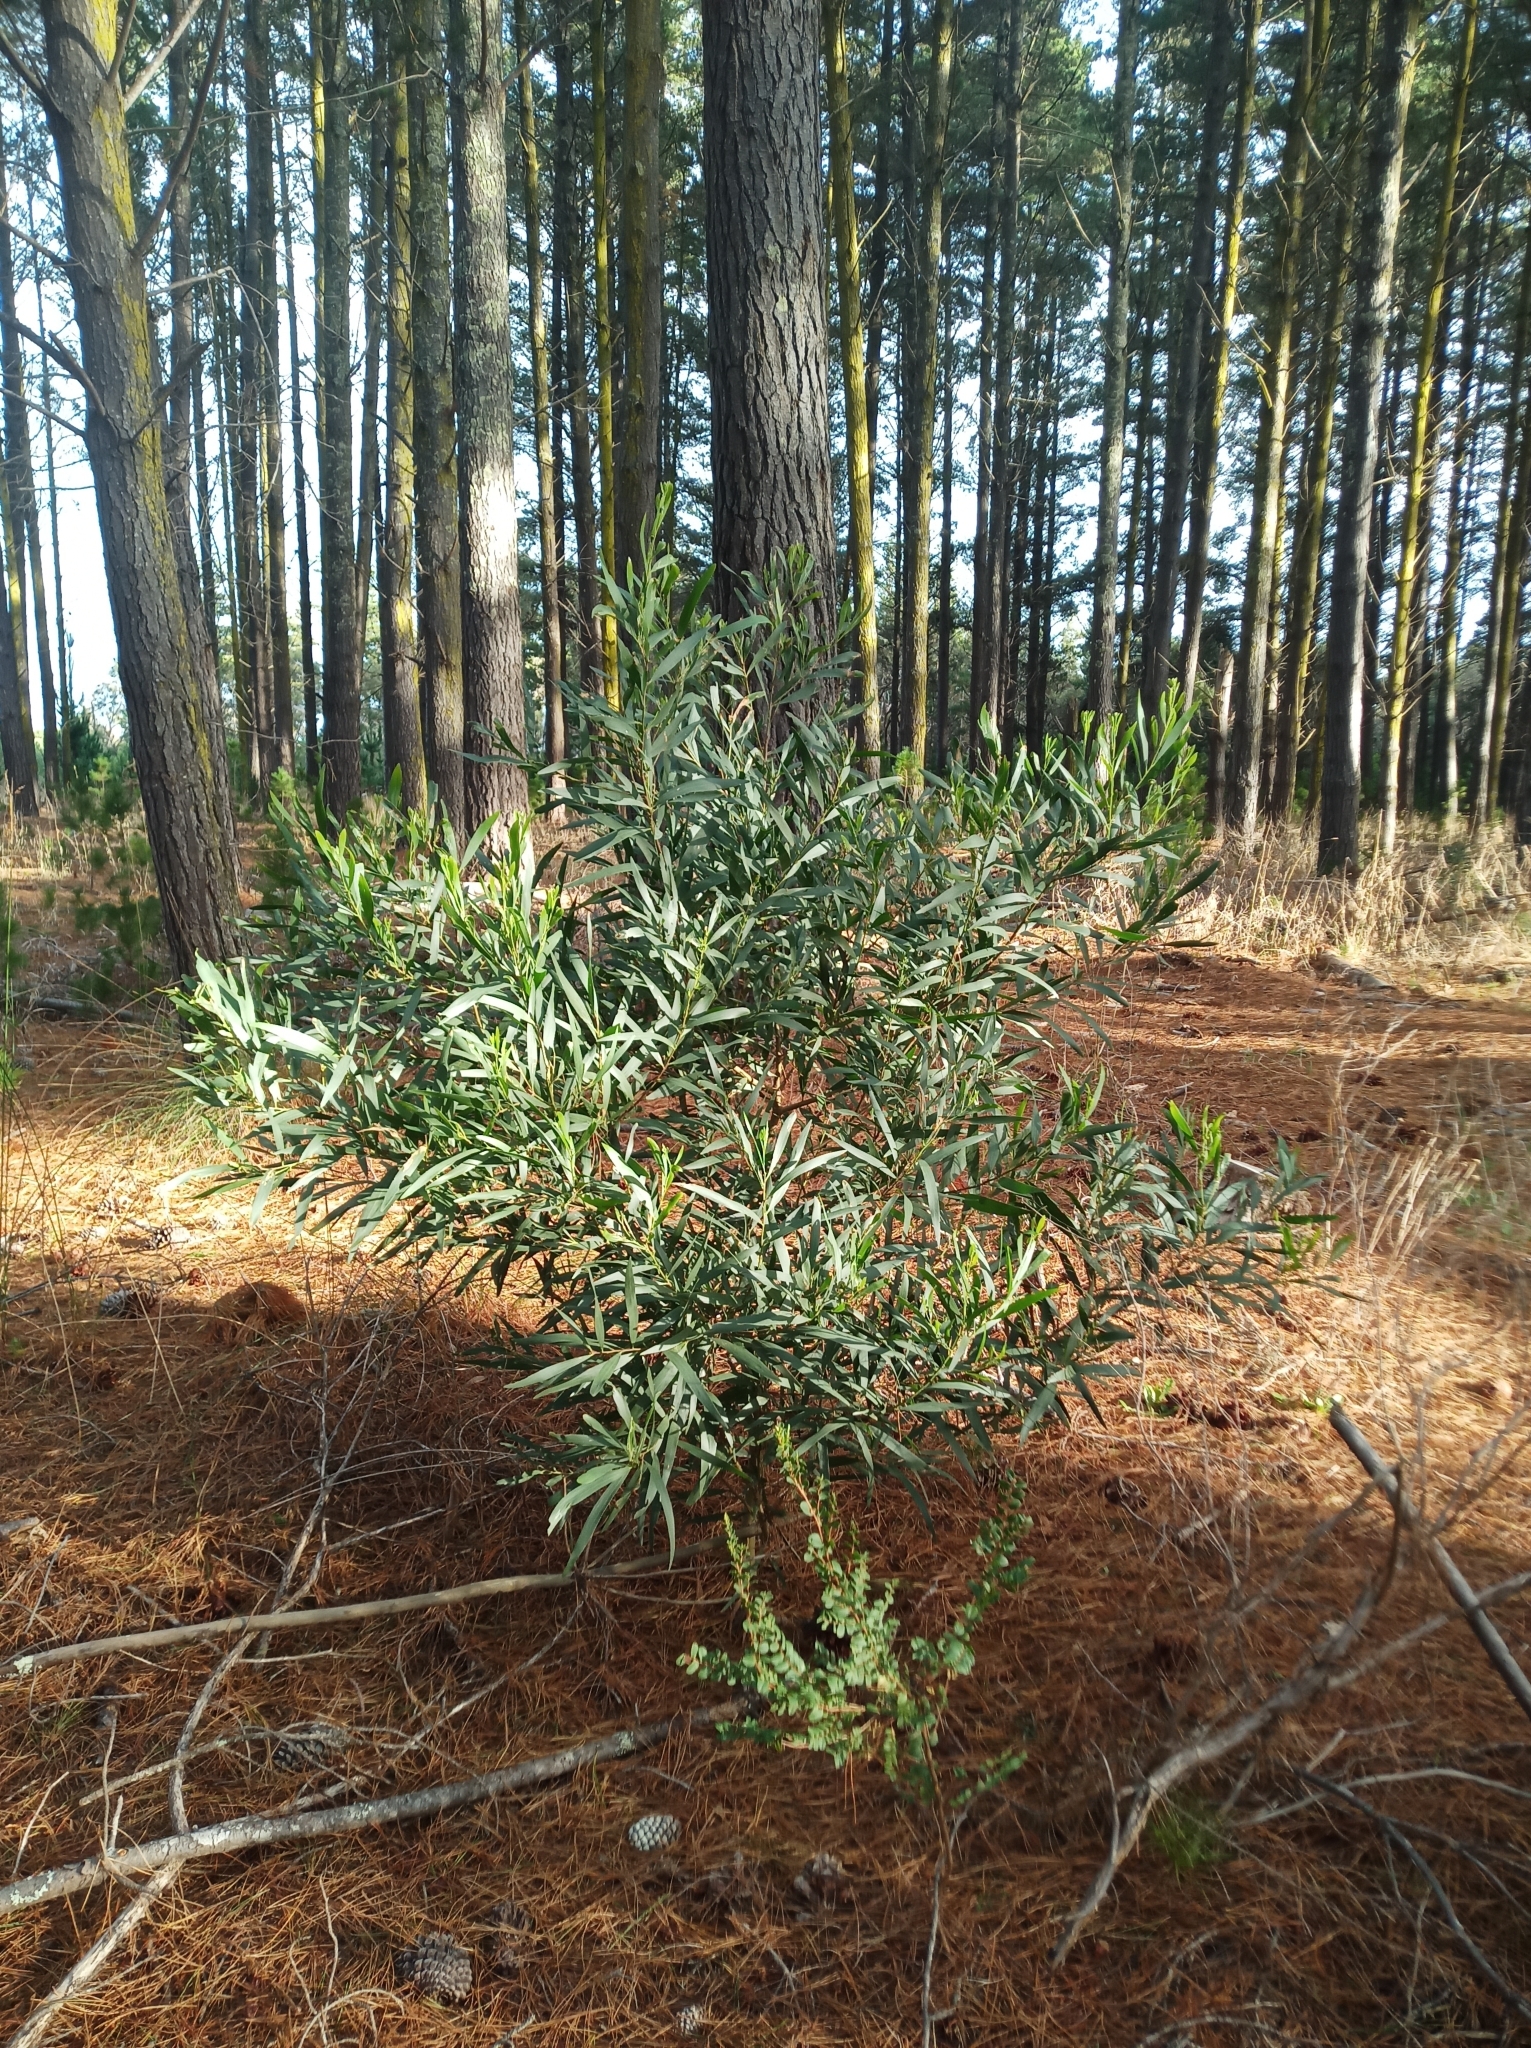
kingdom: Plantae
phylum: Tracheophyta
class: Magnoliopsida
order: Fabales
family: Fabaceae
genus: Acacia
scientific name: Acacia longifolia
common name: Sydney golden wattle
